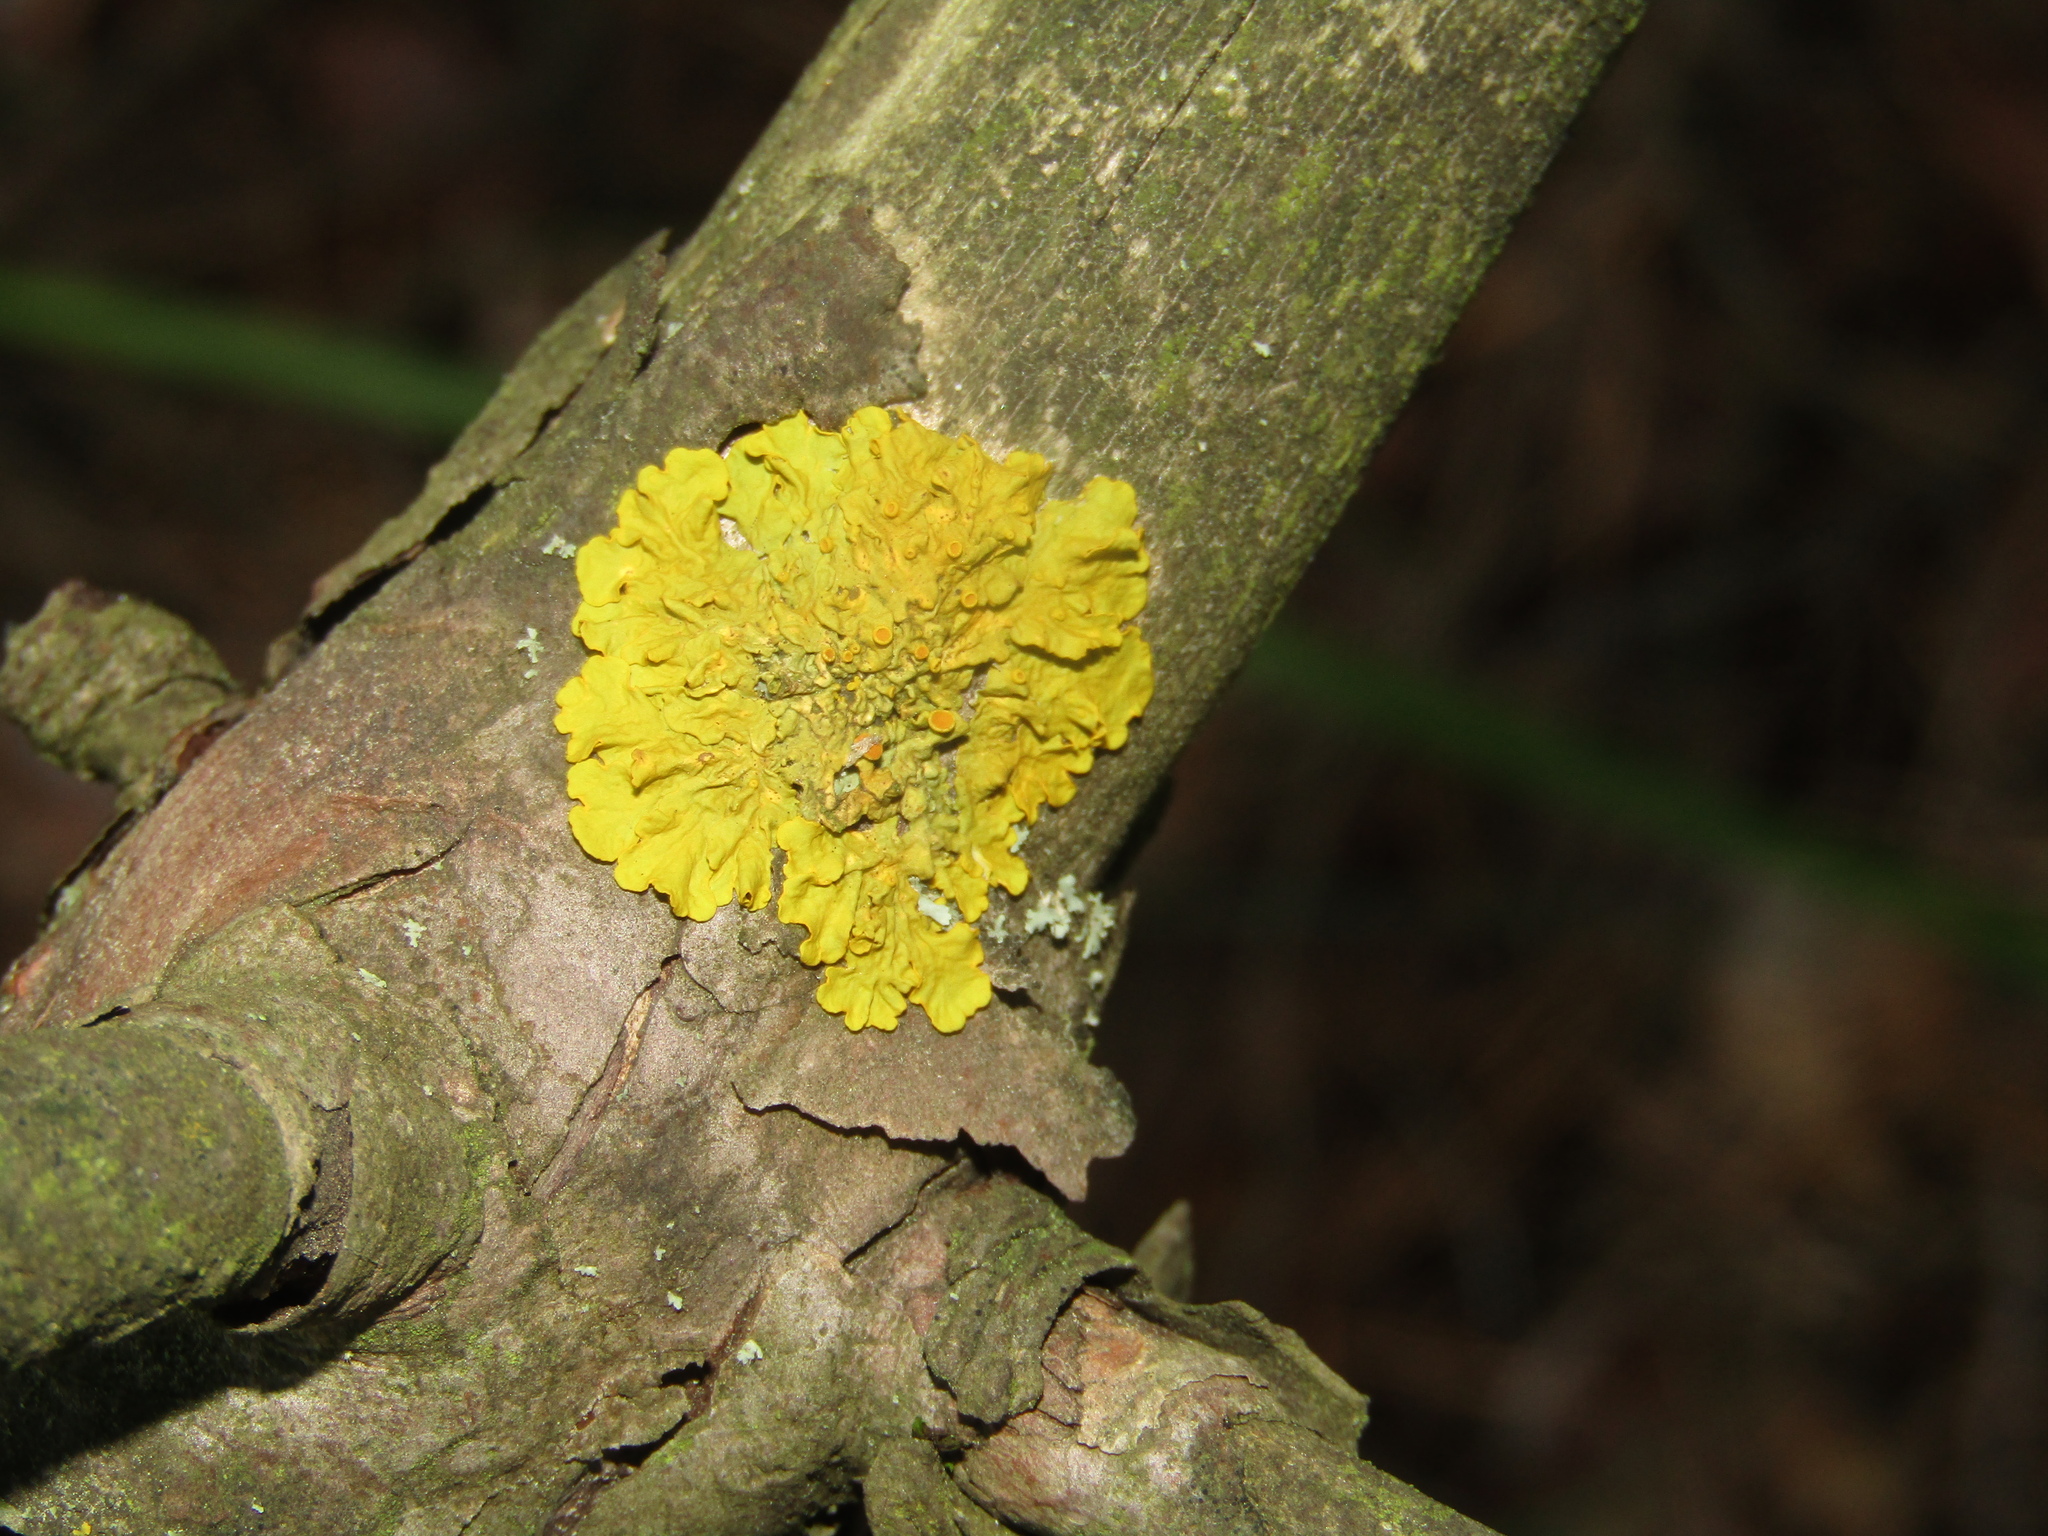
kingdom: Fungi
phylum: Ascomycota
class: Lecanoromycetes
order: Teloschistales
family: Teloschistaceae
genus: Xanthoria
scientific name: Xanthoria parietina
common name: Common orange lichen
